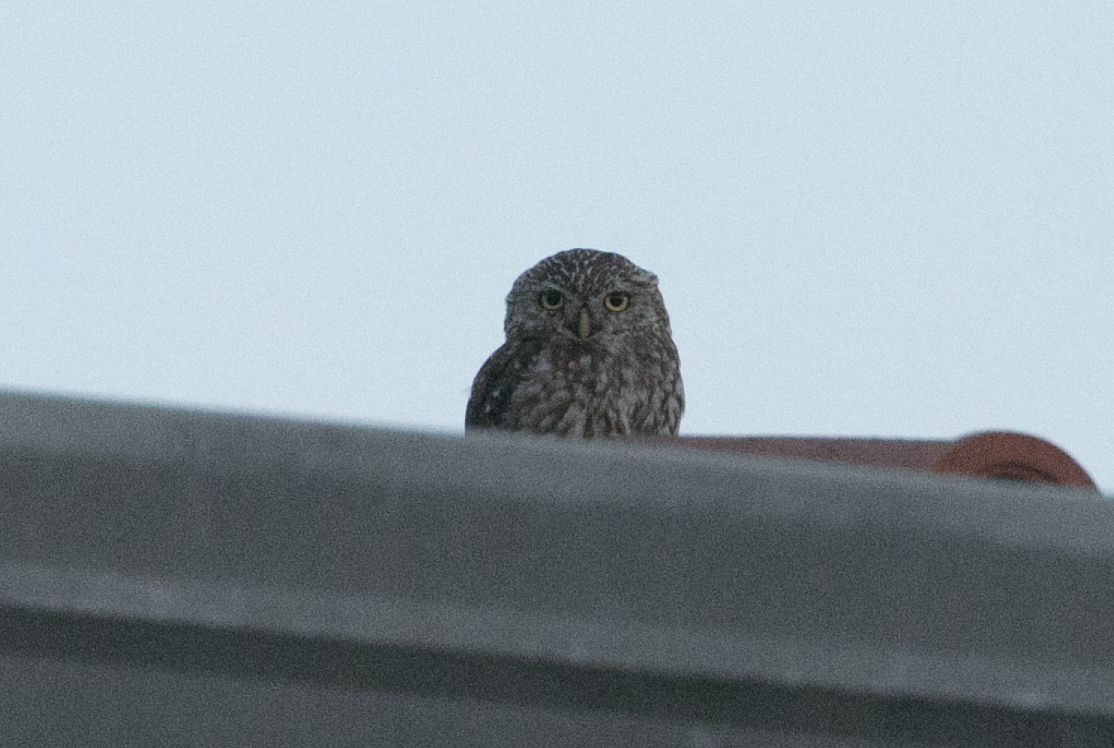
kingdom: Animalia
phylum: Chordata
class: Aves
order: Strigiformes
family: Strigidae
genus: Athene
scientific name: Athene noctua
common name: Little owl
